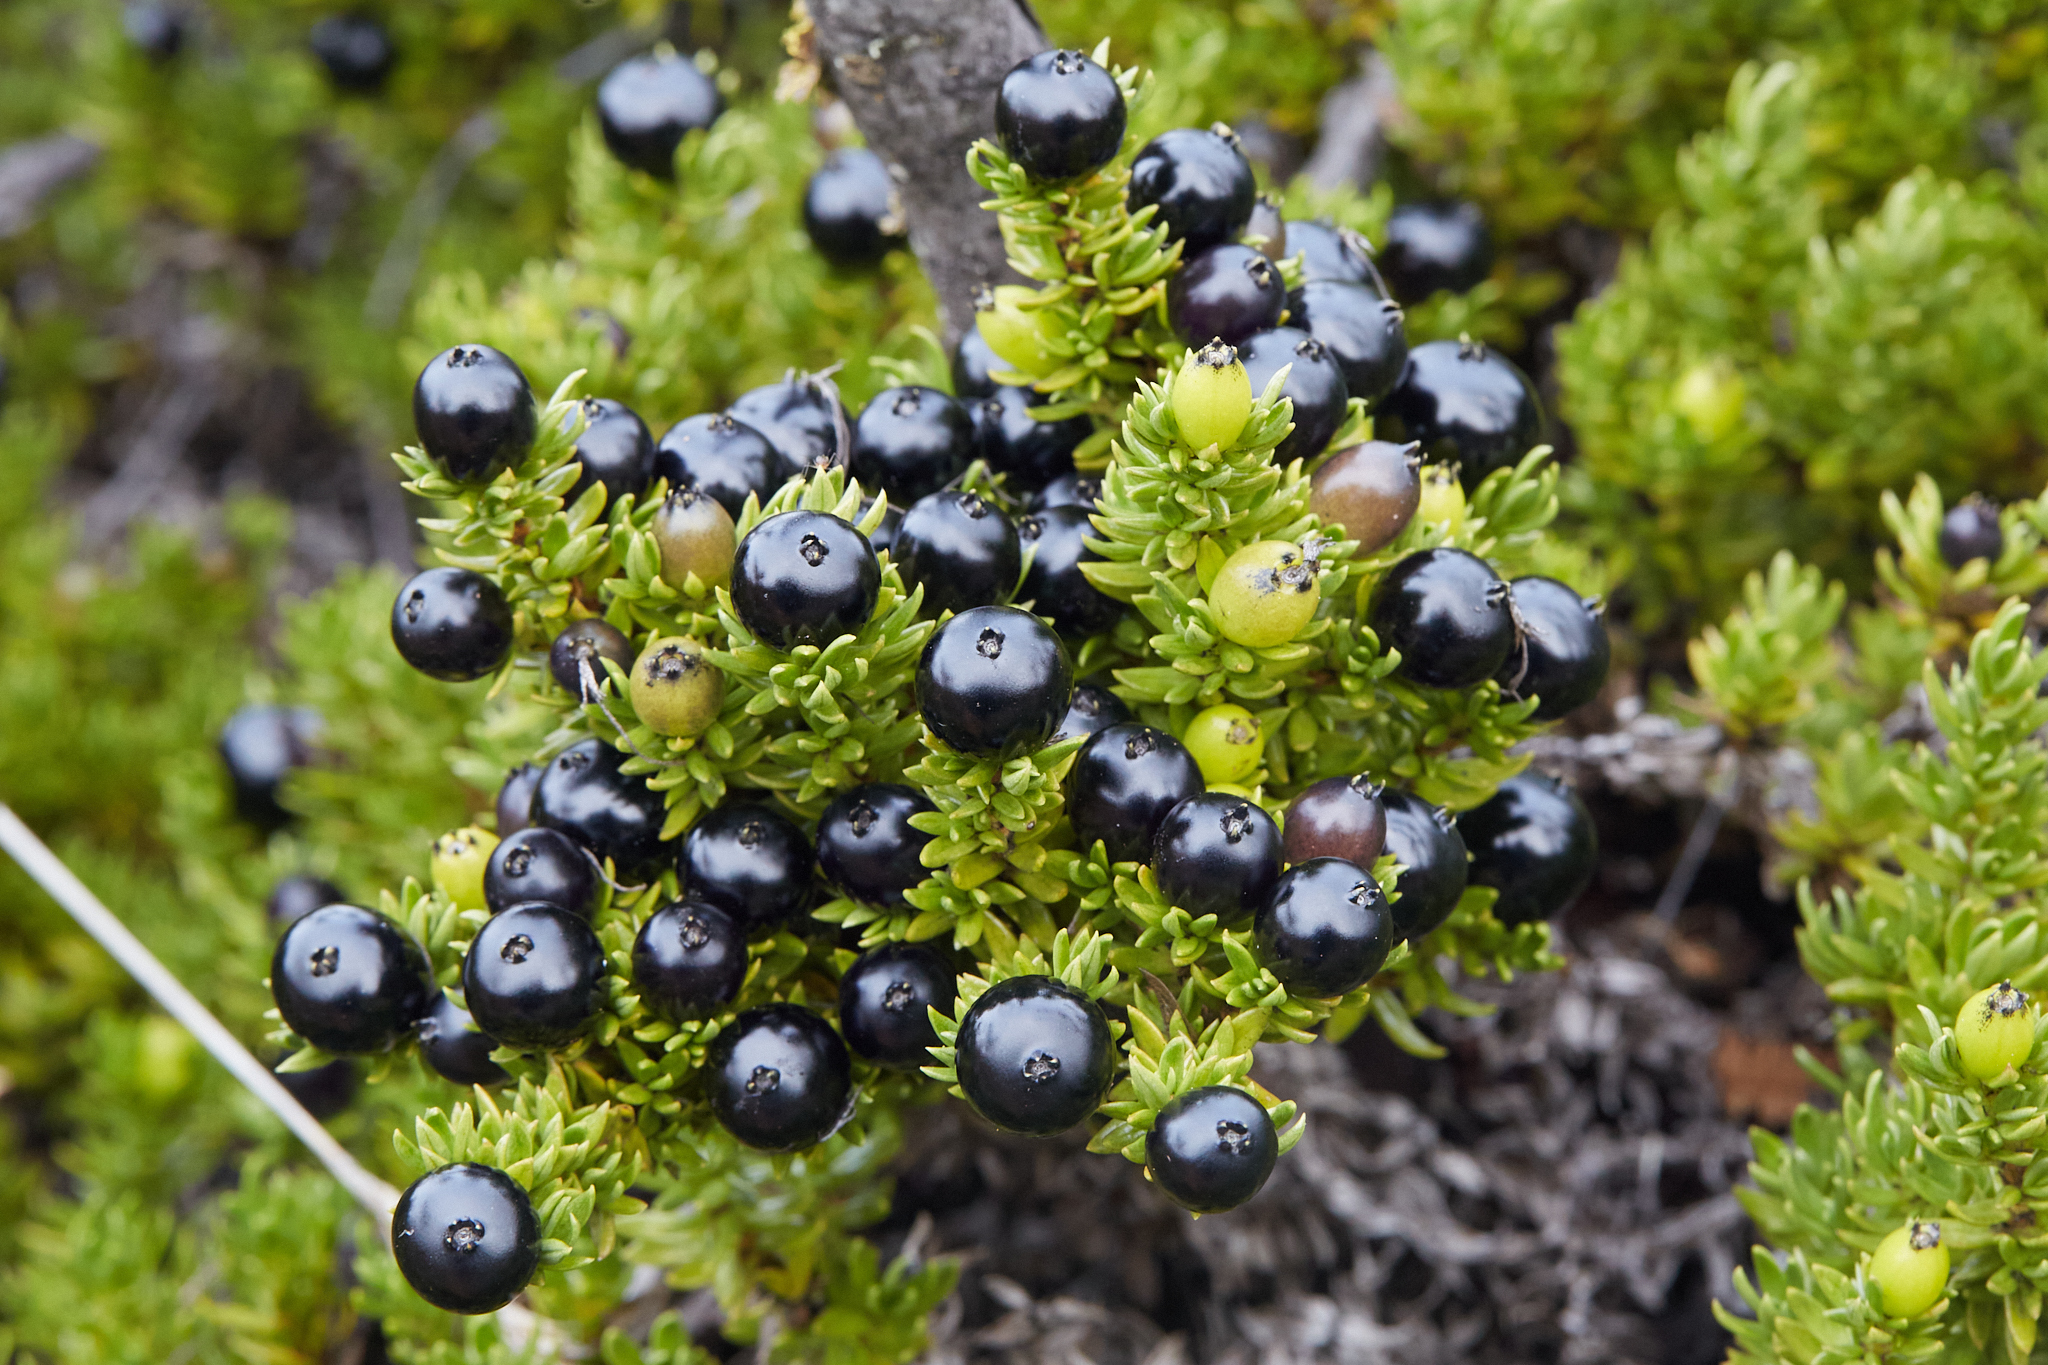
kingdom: Plantae
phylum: Tracheophyta
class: Magnoliopsida
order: Gentianales
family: Rubiaceae
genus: Coprosma
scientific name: Coprosma ernodeoides
